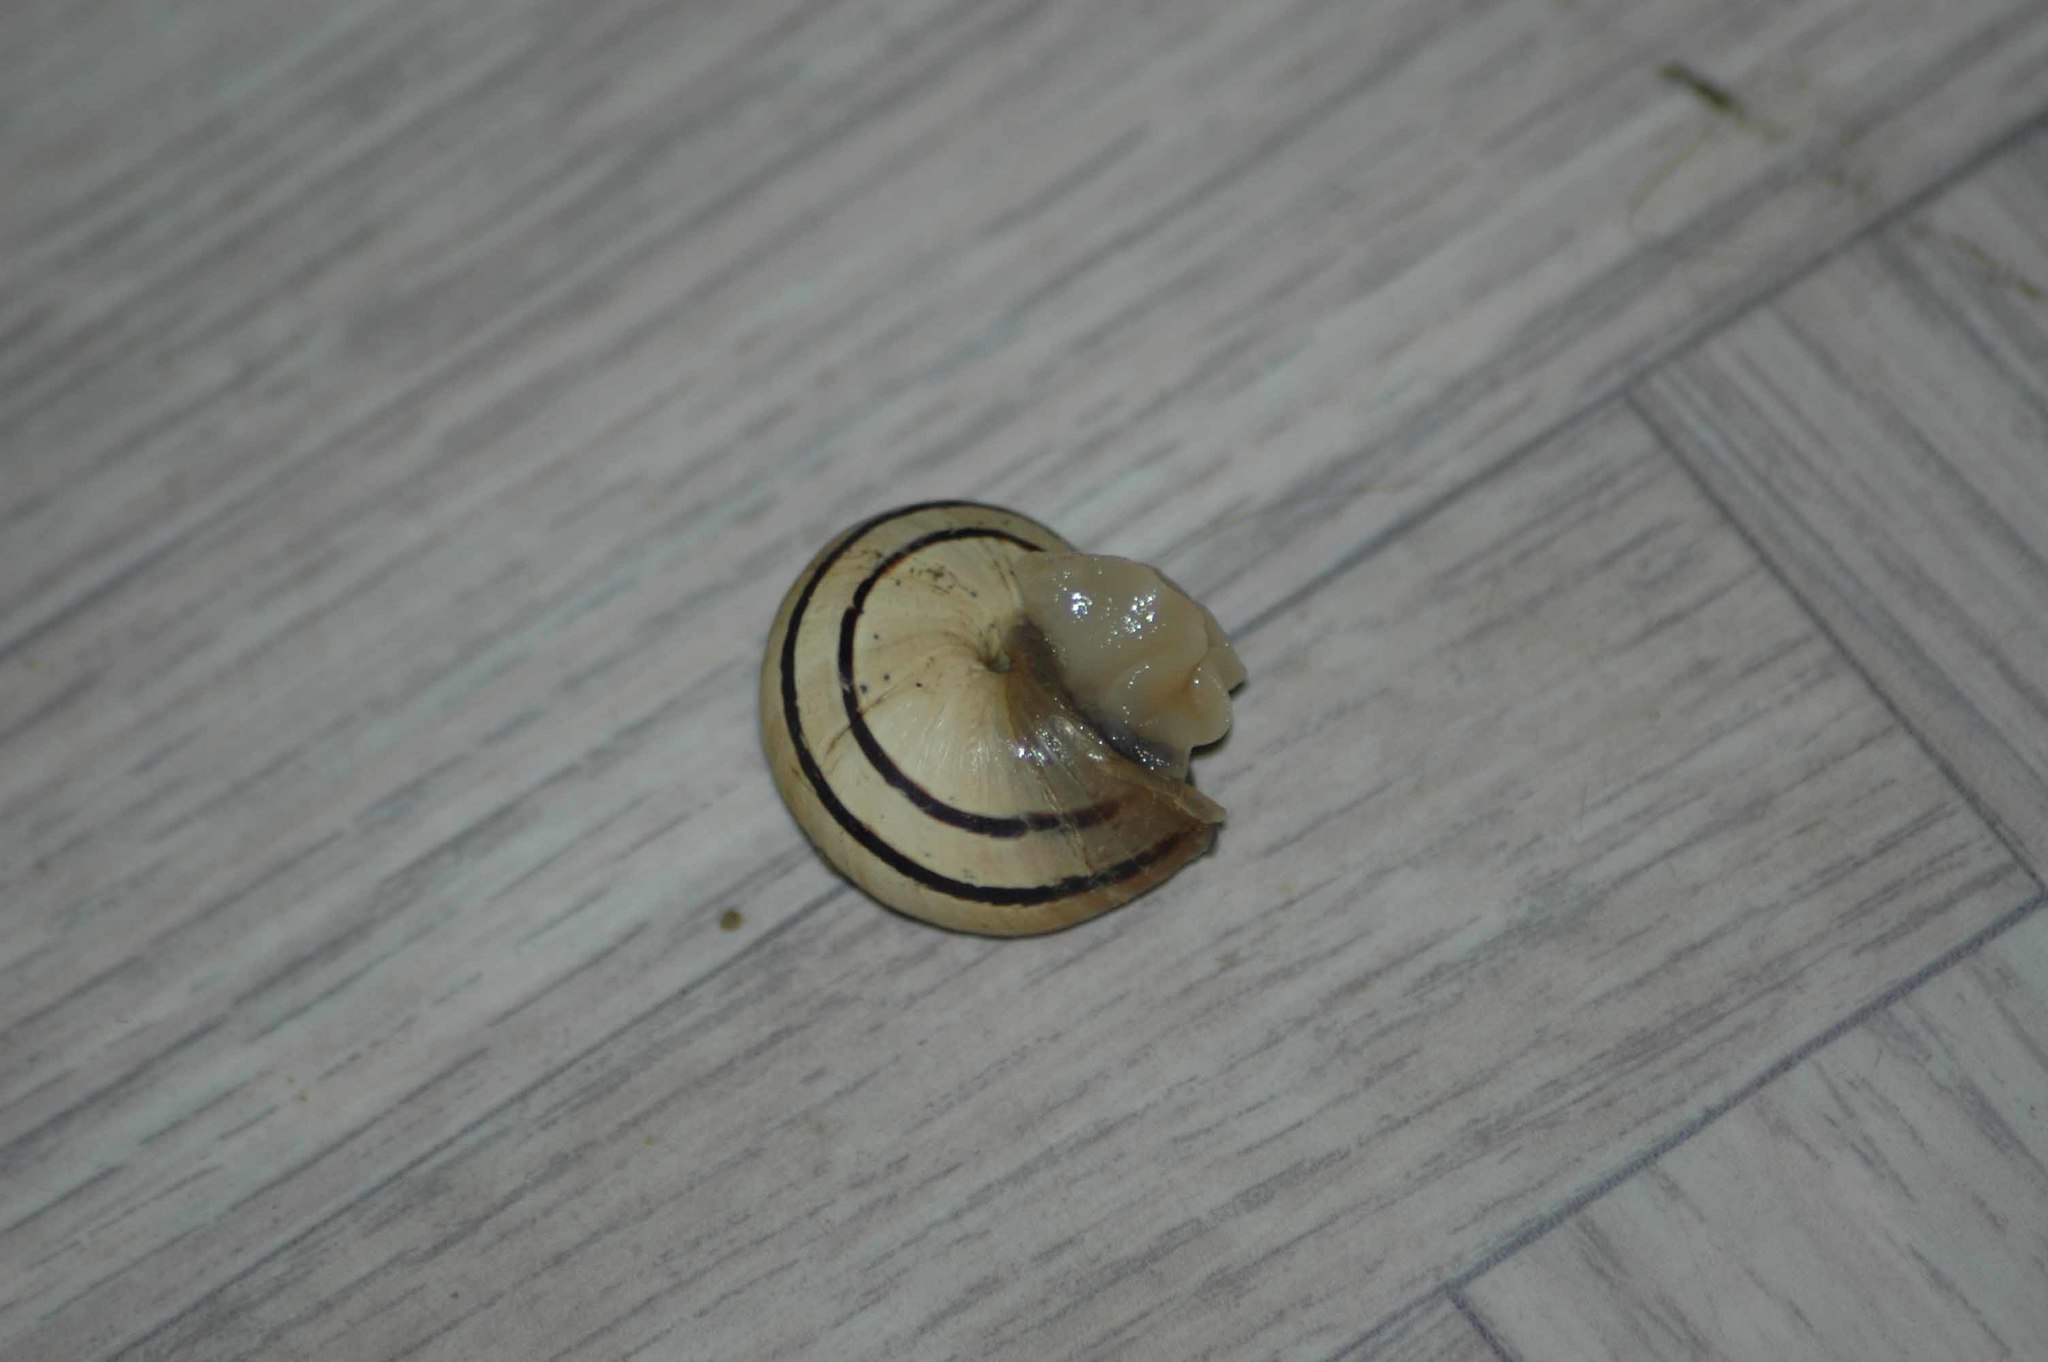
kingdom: Animalia
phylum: Mollusca
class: Gastropoda
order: Stylommatophora
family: Helicidae
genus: Cepaea
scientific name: Cepaea nemoralis
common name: Grovesnail
